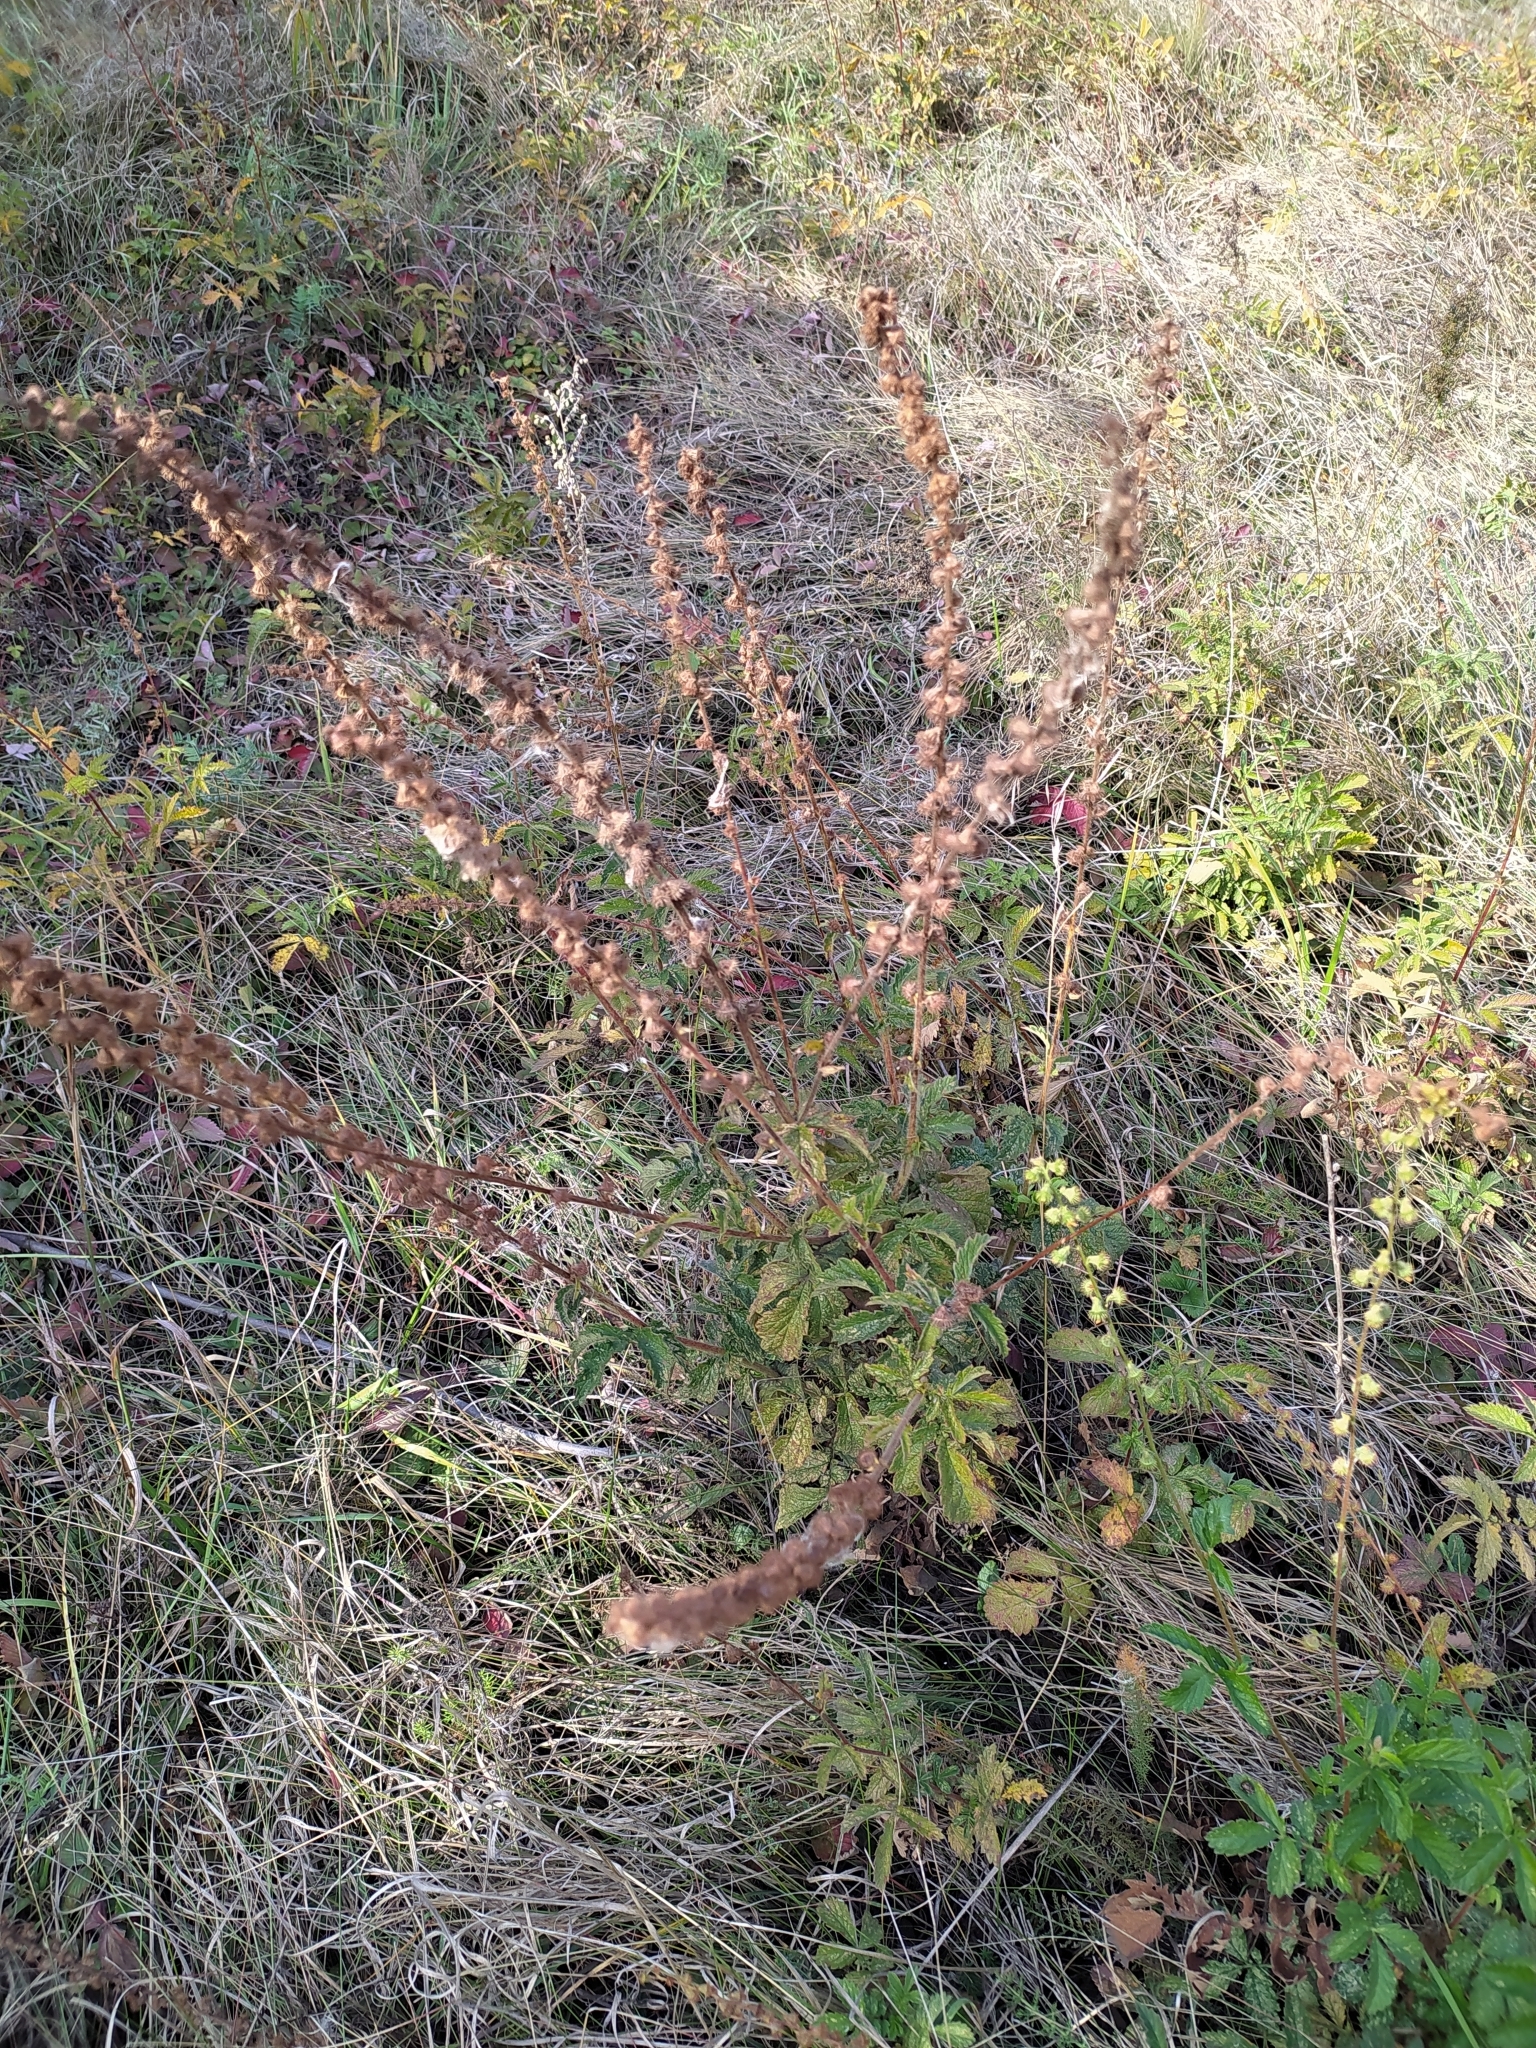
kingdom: Plantae
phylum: Tracheophyta
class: Magnoliopsida
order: Rosales
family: Rosaceae
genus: Agrimonia
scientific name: Agrimonia eupatoria
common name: Agrimony
